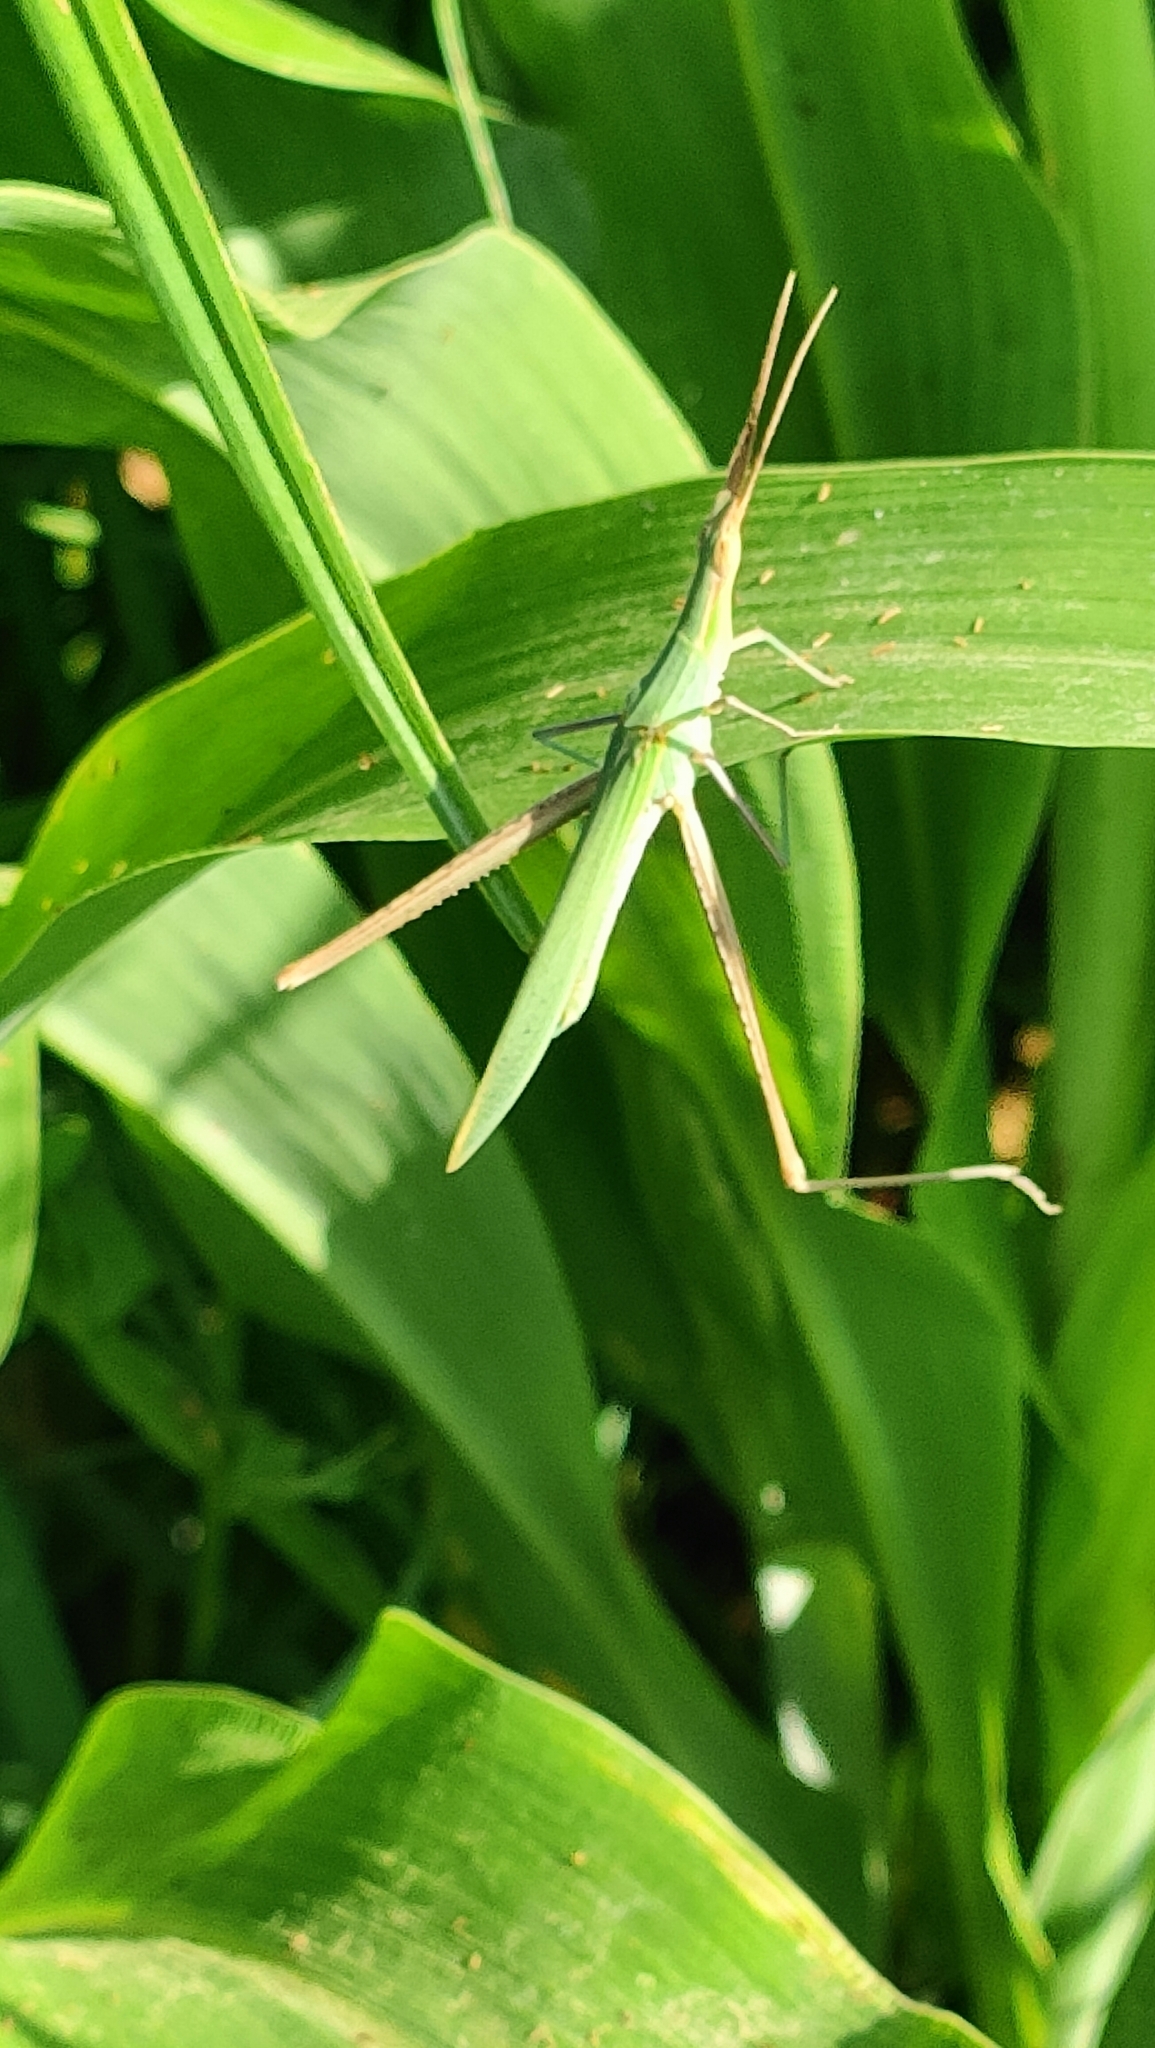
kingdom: Animalia
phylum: Arthropoda
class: Insecta
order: Orthoptera
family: Acrididae
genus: Acrida
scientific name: Acrida ungarica
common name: Common cone-headed grasshopper
